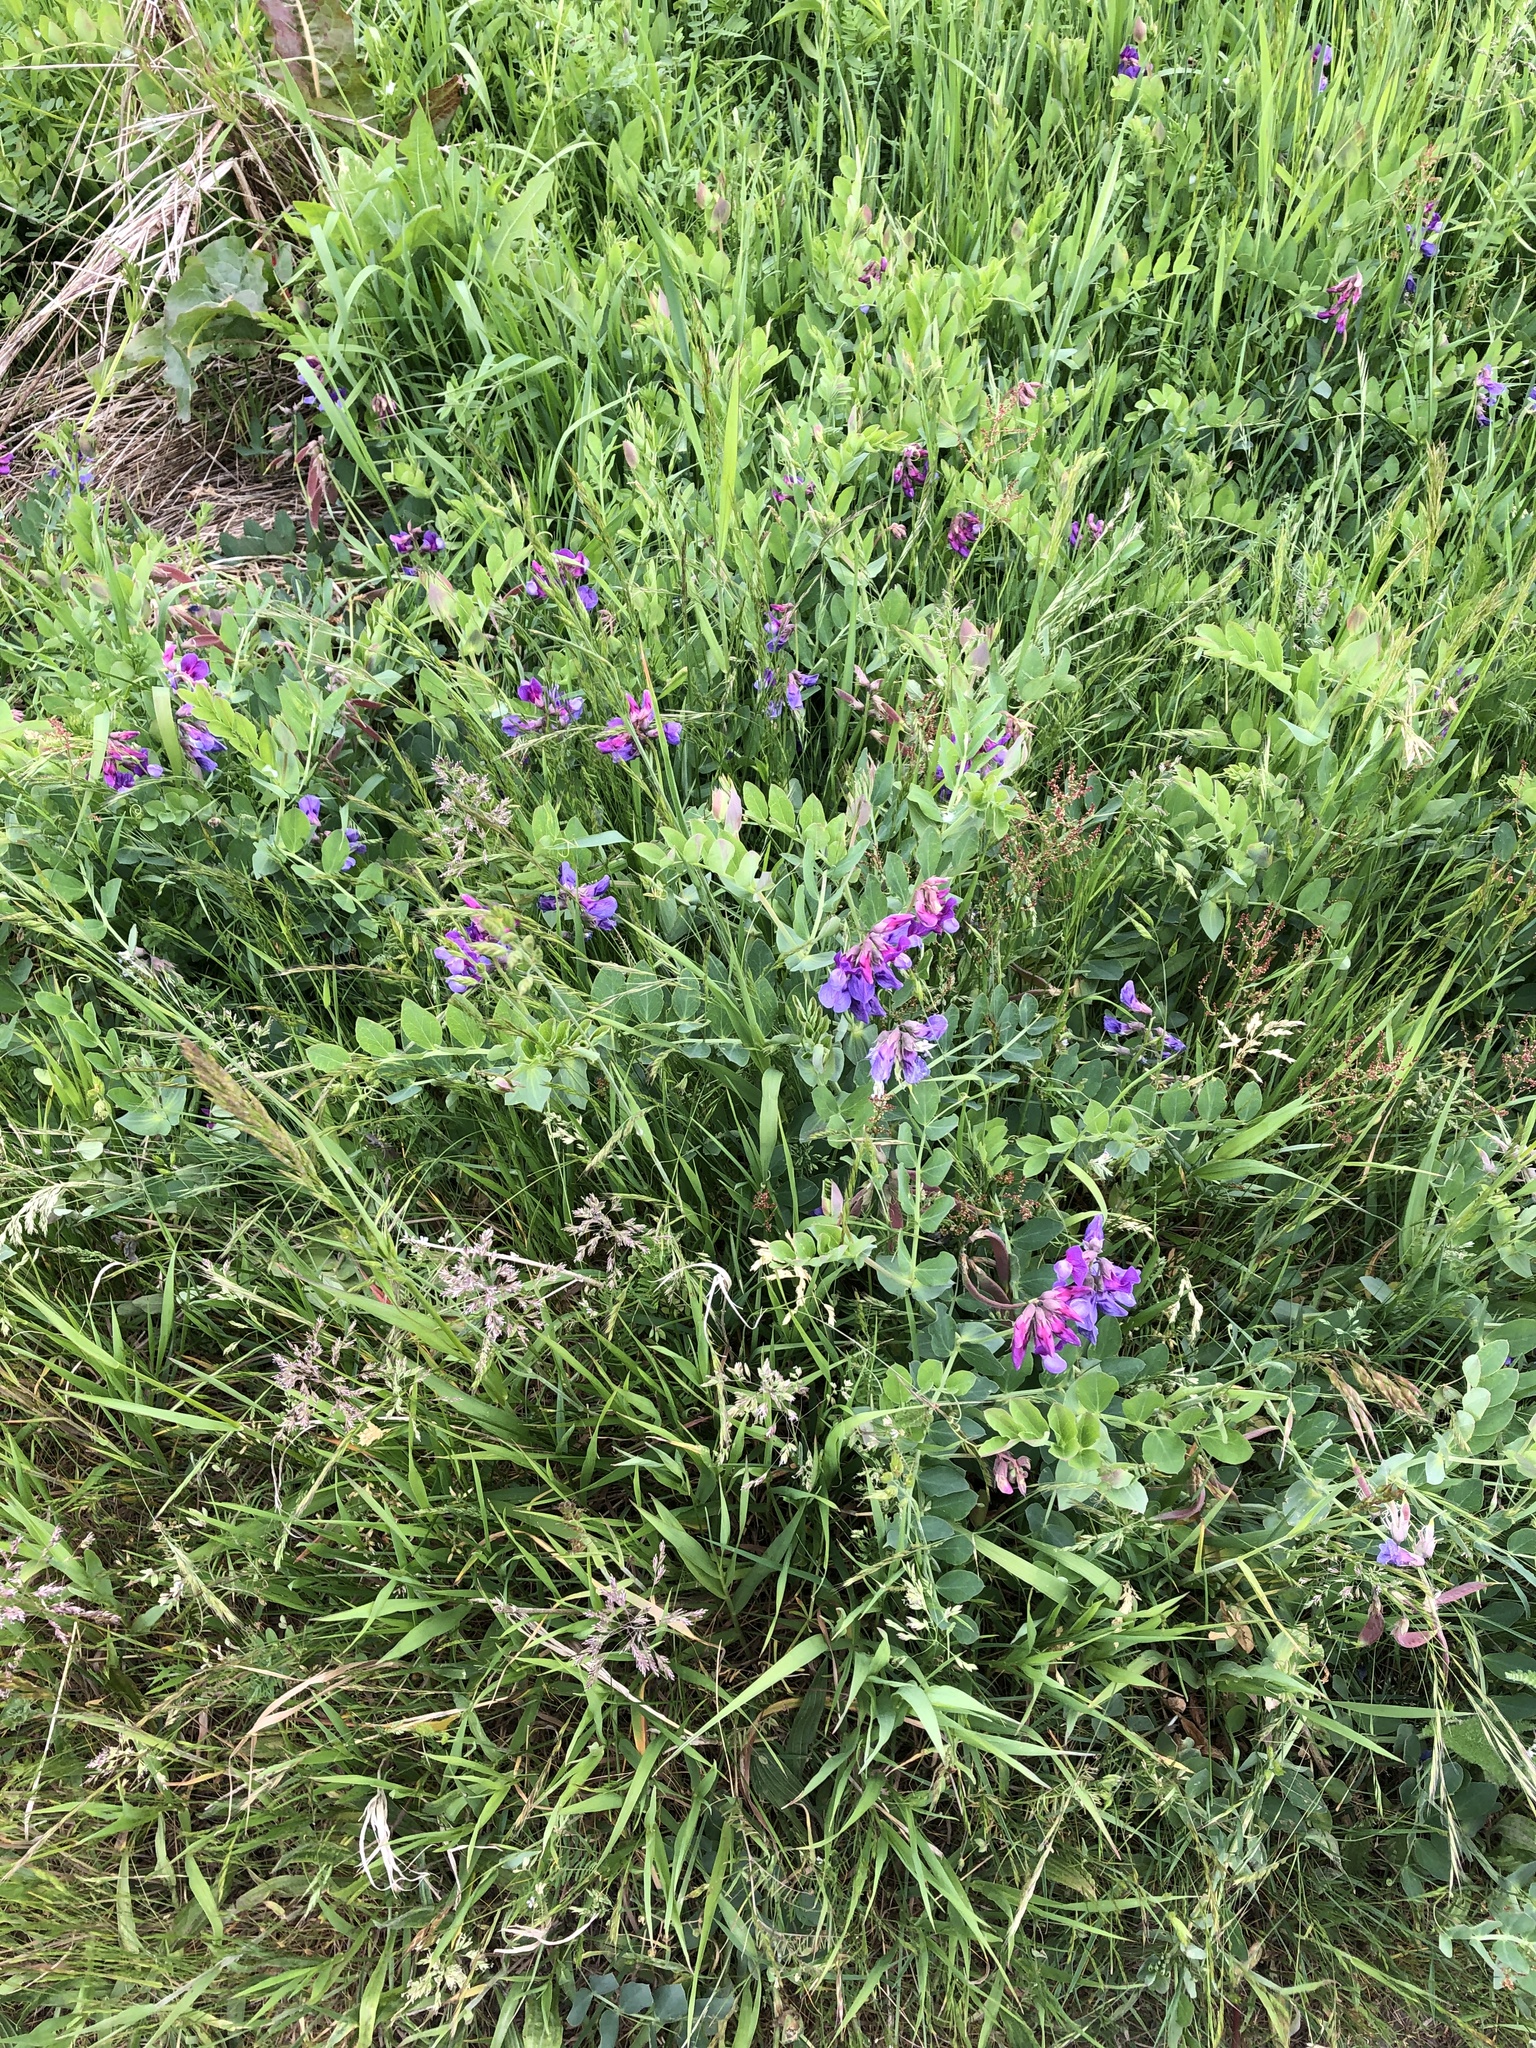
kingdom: Plantae
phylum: Tracheophyta
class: Magnoliopsida
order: Fabales
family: Fabaceae
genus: Lathyrus
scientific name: Lathyrus japonicus
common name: Sea pea
